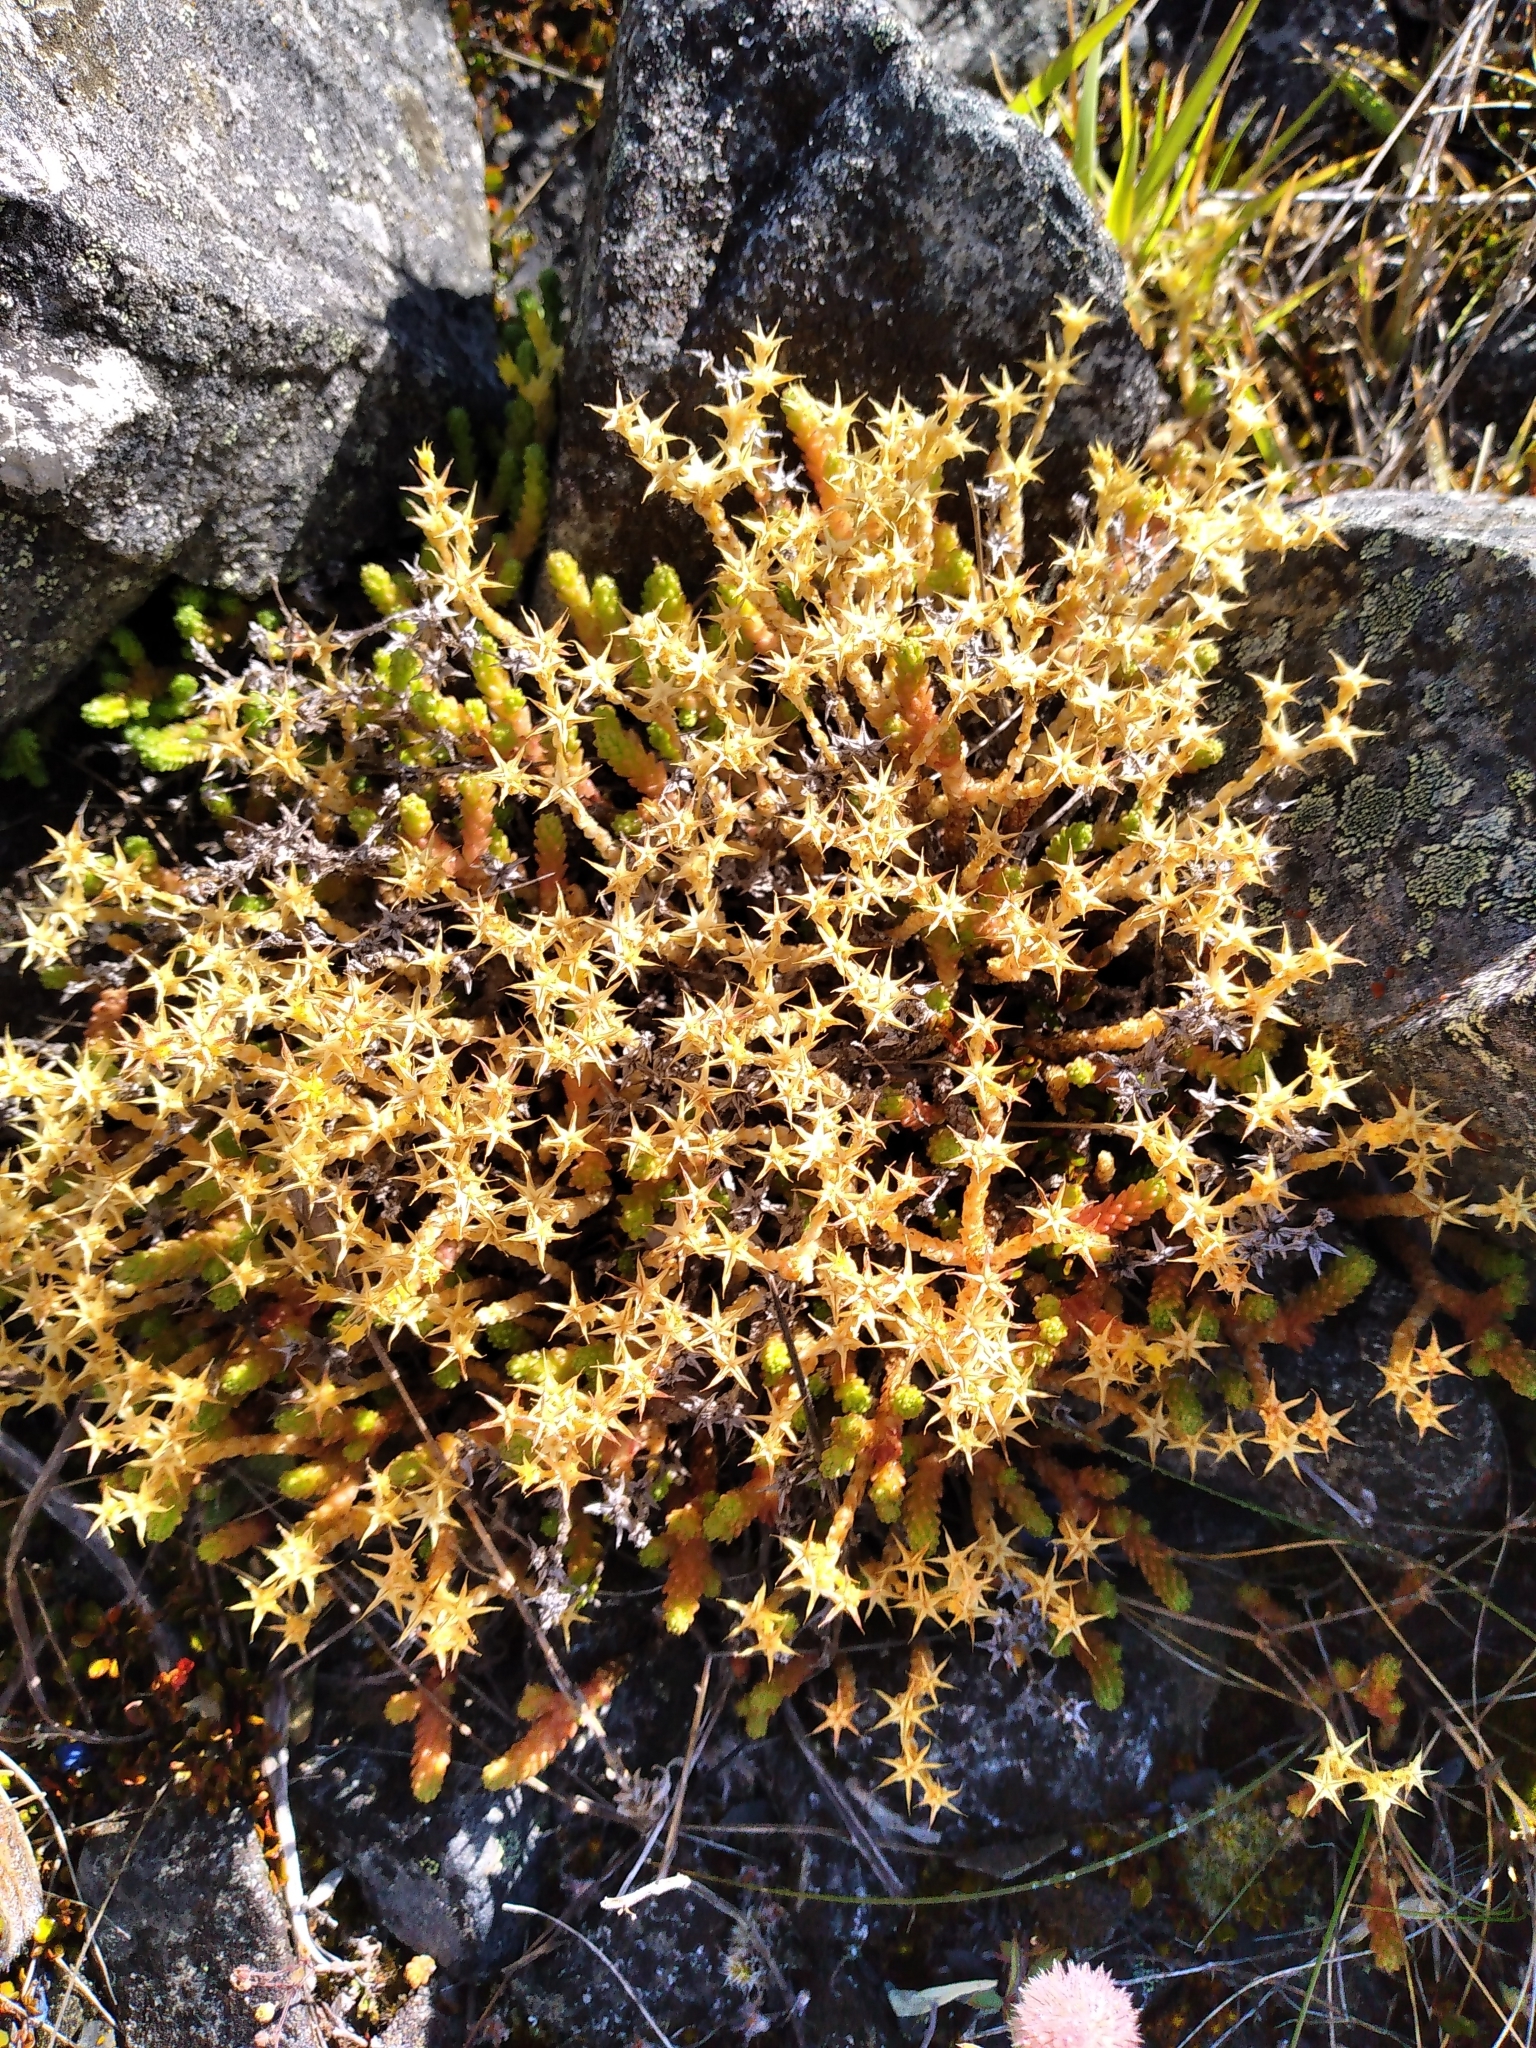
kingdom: Plantae
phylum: Tracheophyta
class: Magnoliopsida
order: Saxifragales
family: Crassulaceae
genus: Sedum
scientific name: Sedum acre
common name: Biting stonecrop
